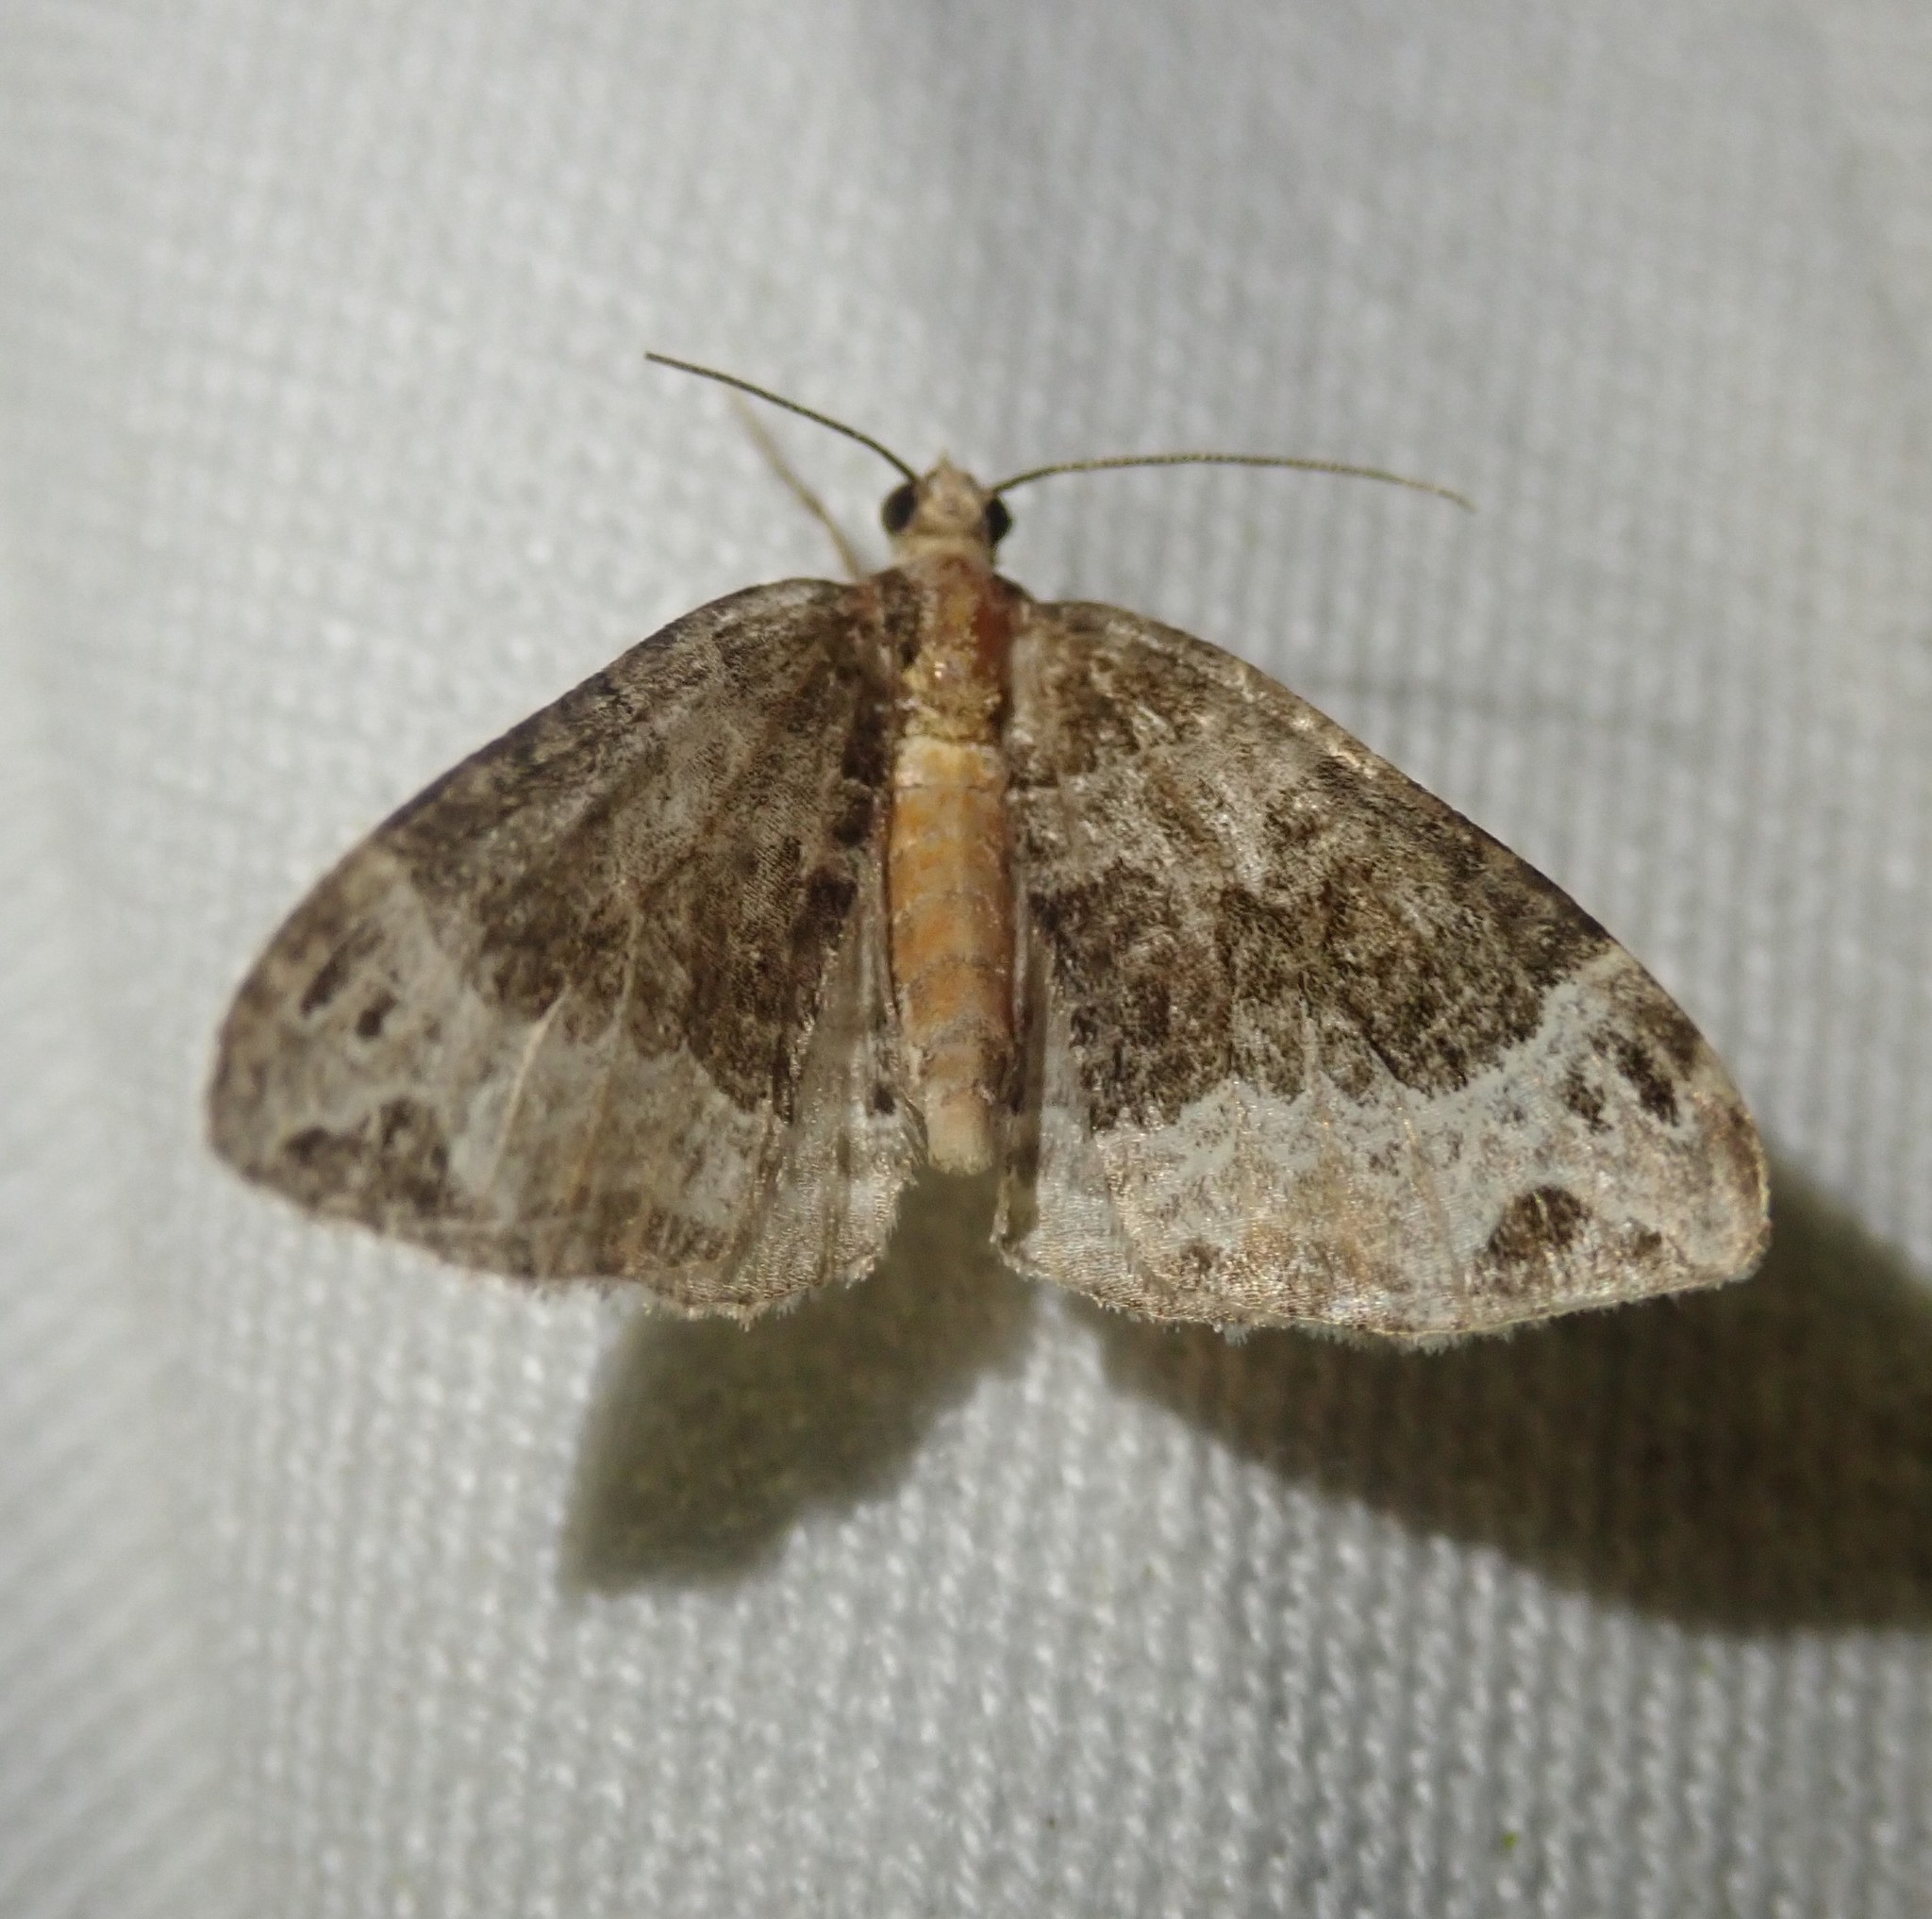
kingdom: Animalia
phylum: Arthropoda
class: Insecta
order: Lepidoptera
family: Geometridae
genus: Ecliptopera
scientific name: Ecliptopera capitata
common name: Yellow-headed phoenix
